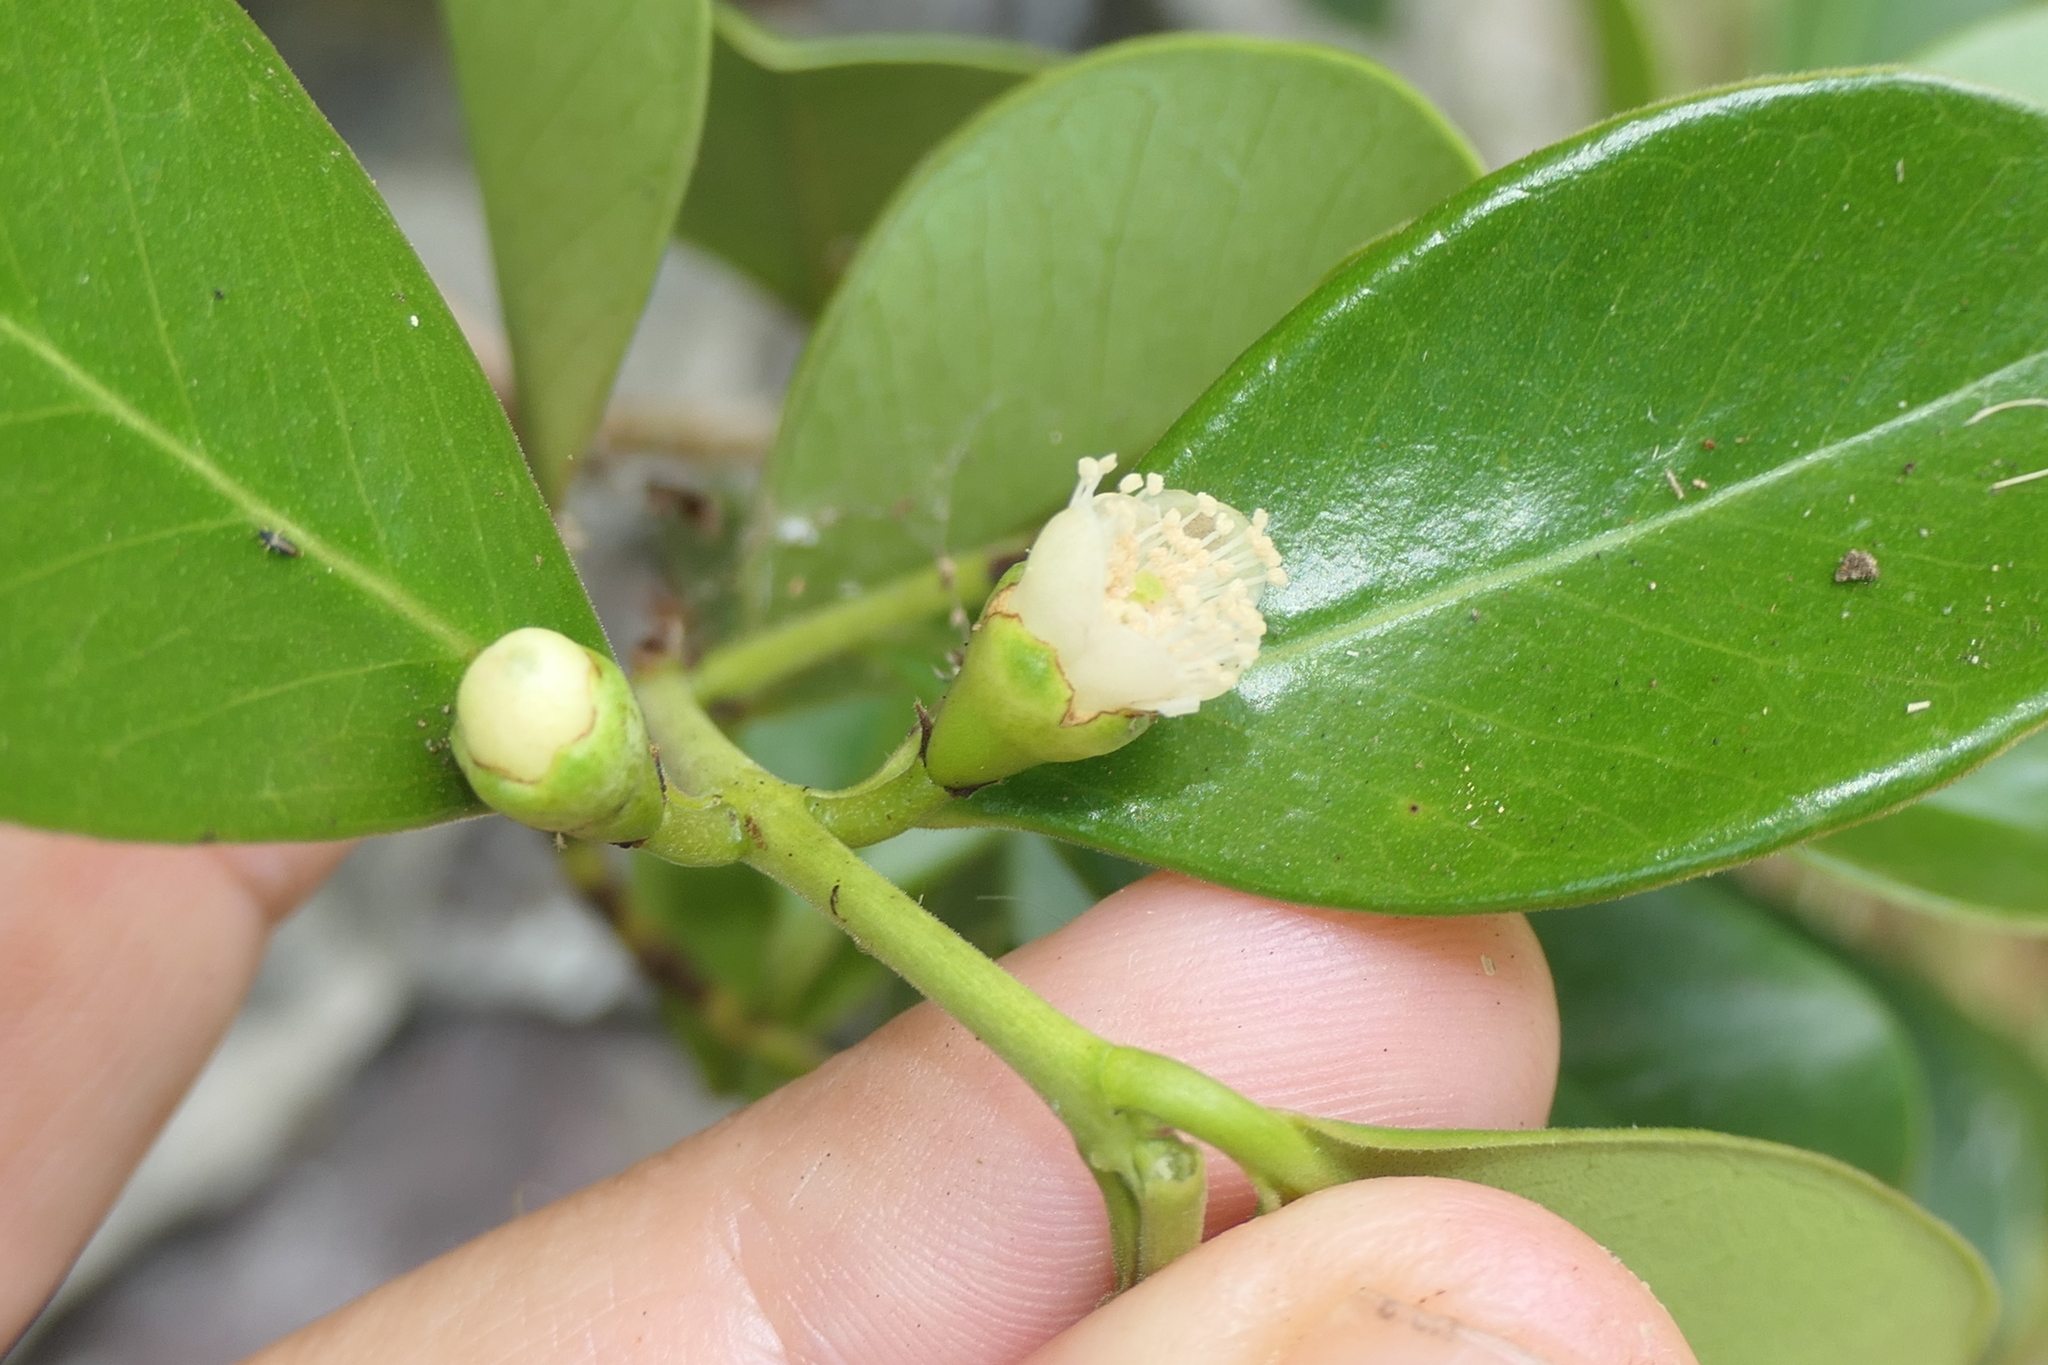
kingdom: Plantae
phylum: Tracheophyta
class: Magnoliopsida
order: Myrtales
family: Myrtaceae
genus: Psidium
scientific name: Psidium cattleianum
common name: Strawberry guava
